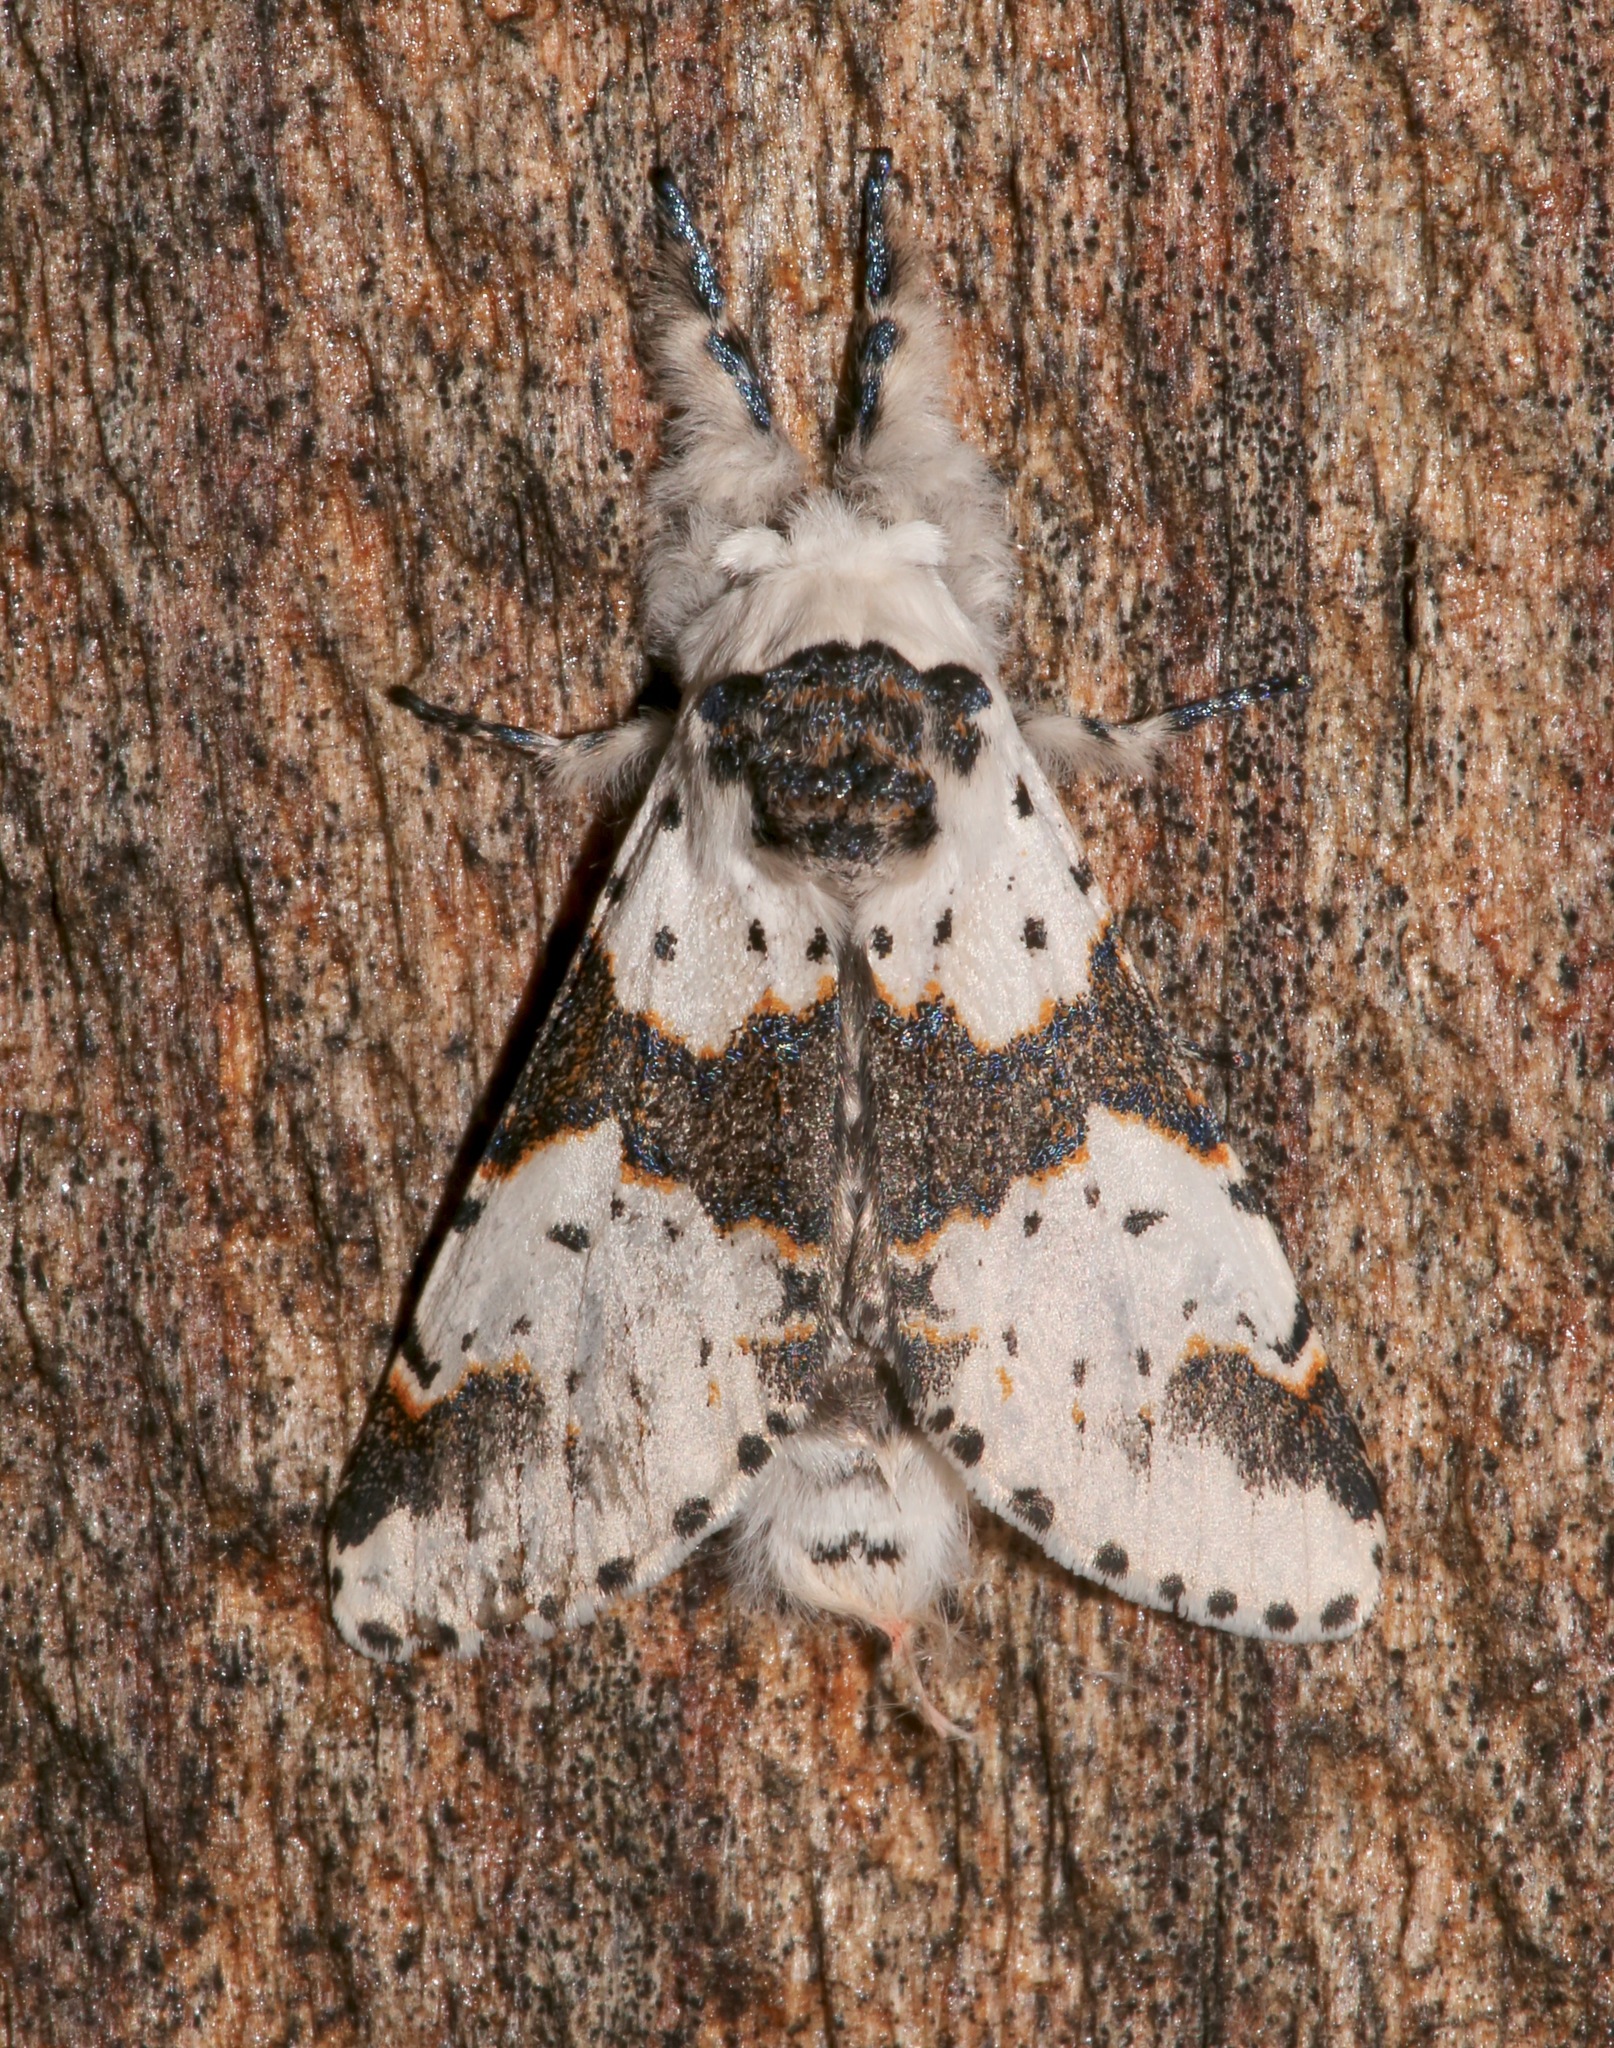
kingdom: Animalia
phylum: Arthropoda
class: Insecta
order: Lepidoptera
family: Notodontidae
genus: Furcula
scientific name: Furcula borealis
